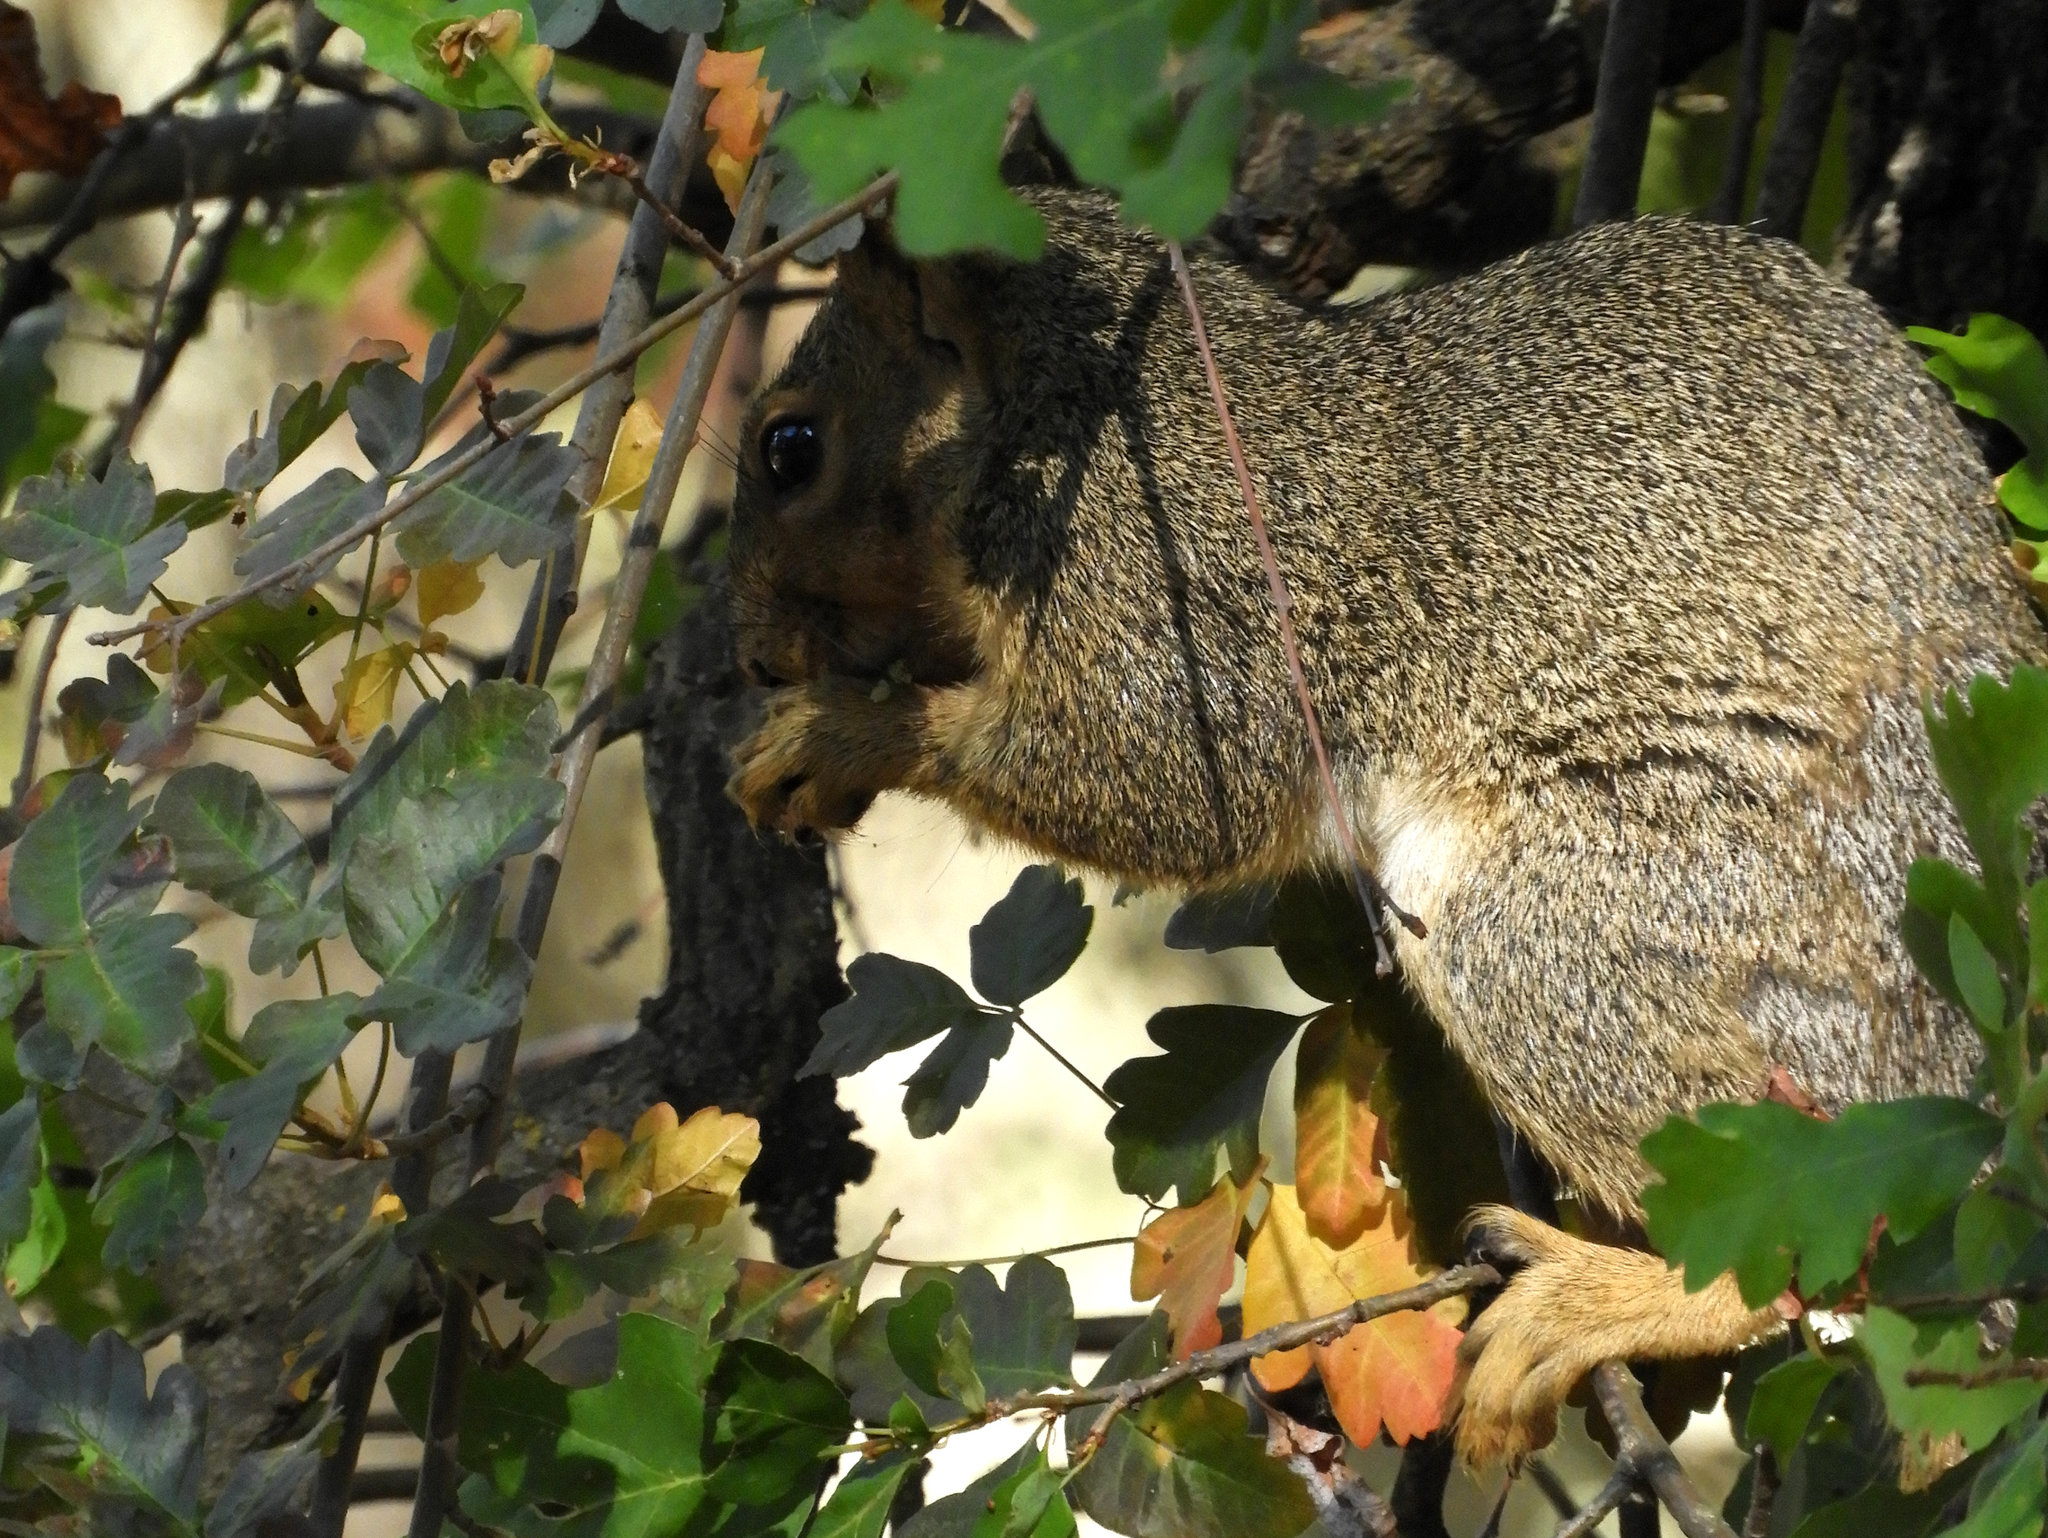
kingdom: Animalia
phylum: Chordata
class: Mammalia
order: Rodentia
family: Sciuridae
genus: Sciurus
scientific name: Sciurus carolinensis
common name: Eastern gray squirrel
